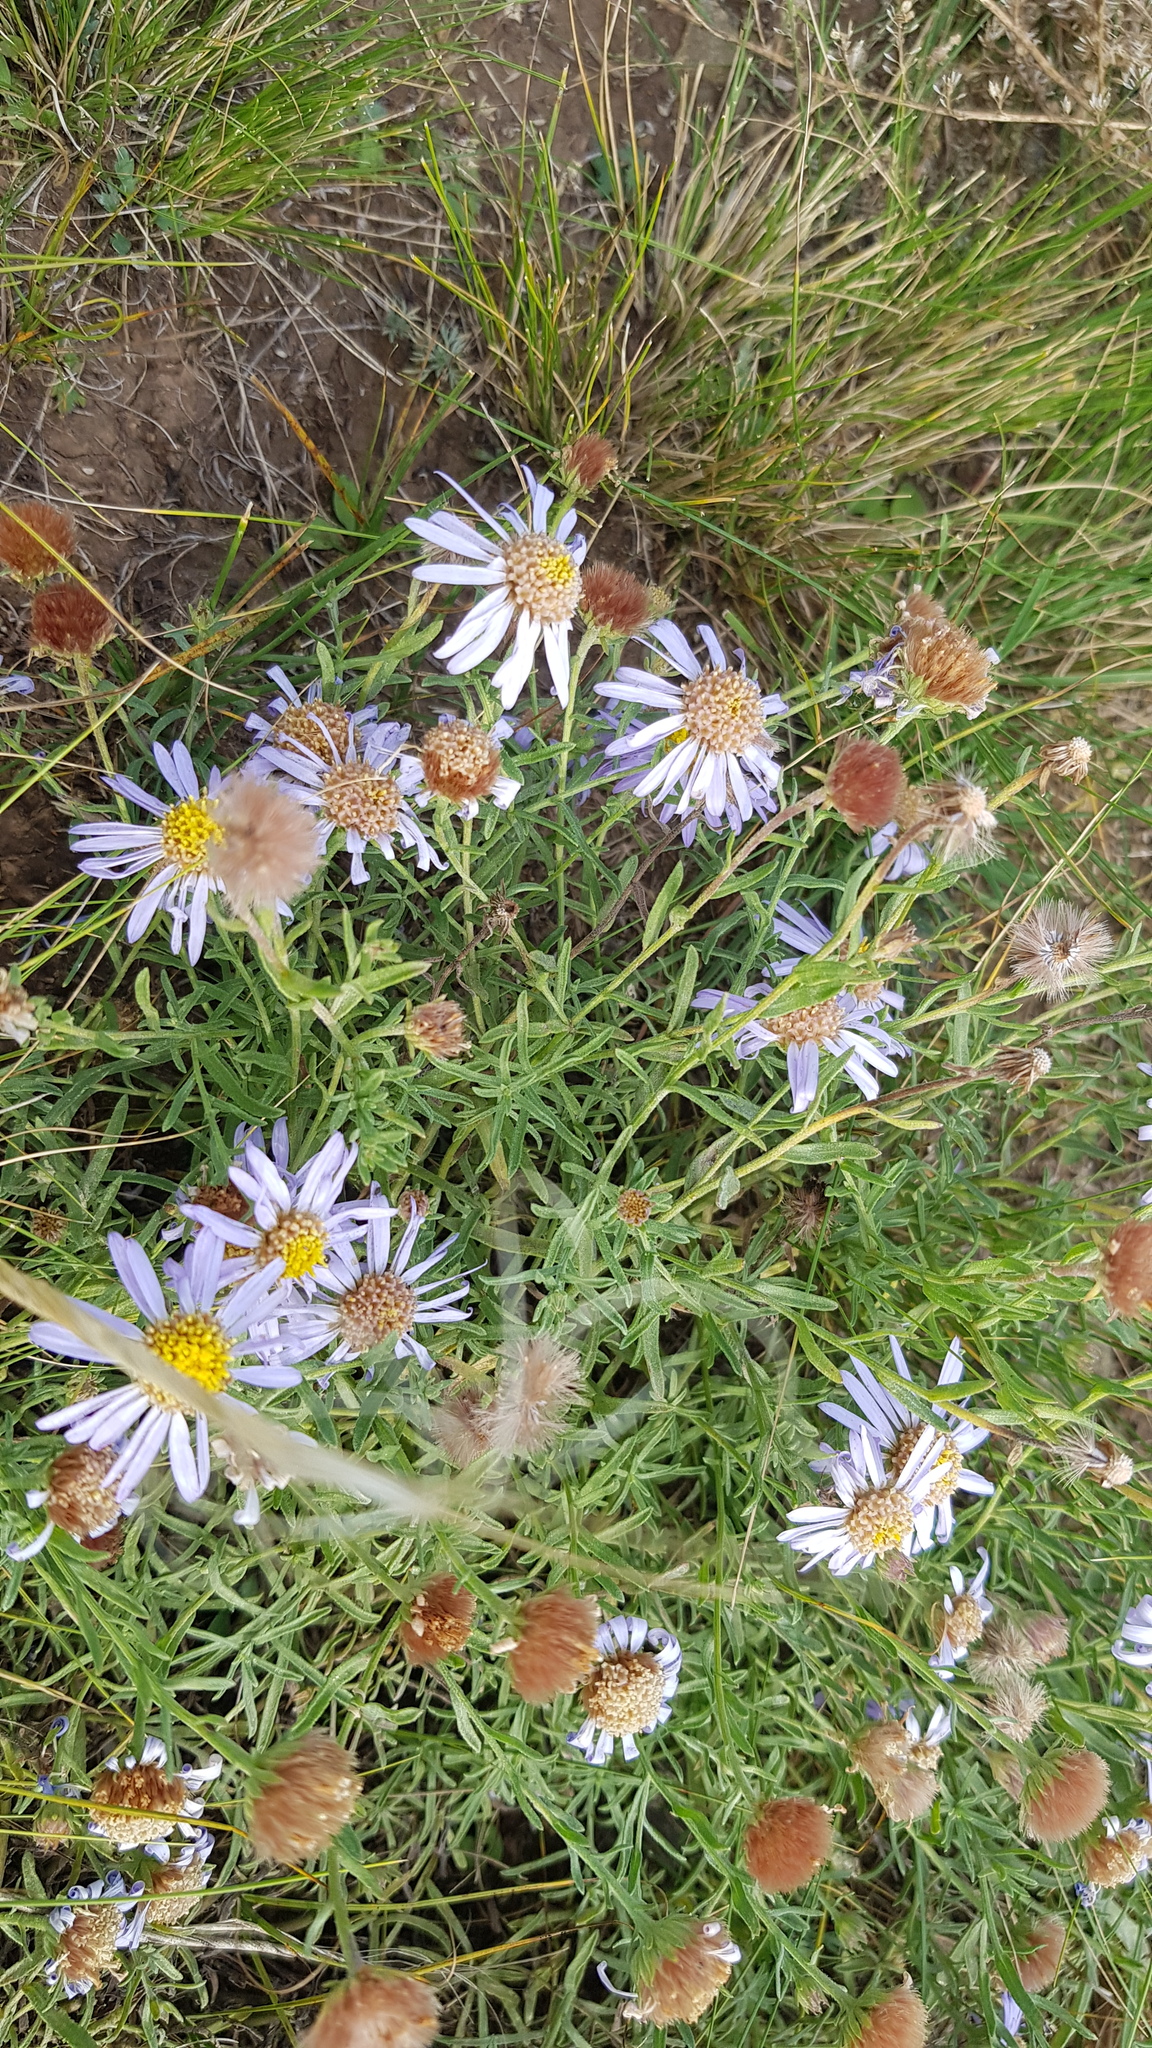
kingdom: Plantae
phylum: Tracheophyta
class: Magnoliopsida
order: Asterales
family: Asteraceae
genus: Heteropappus
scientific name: Heteropappus altaicus
